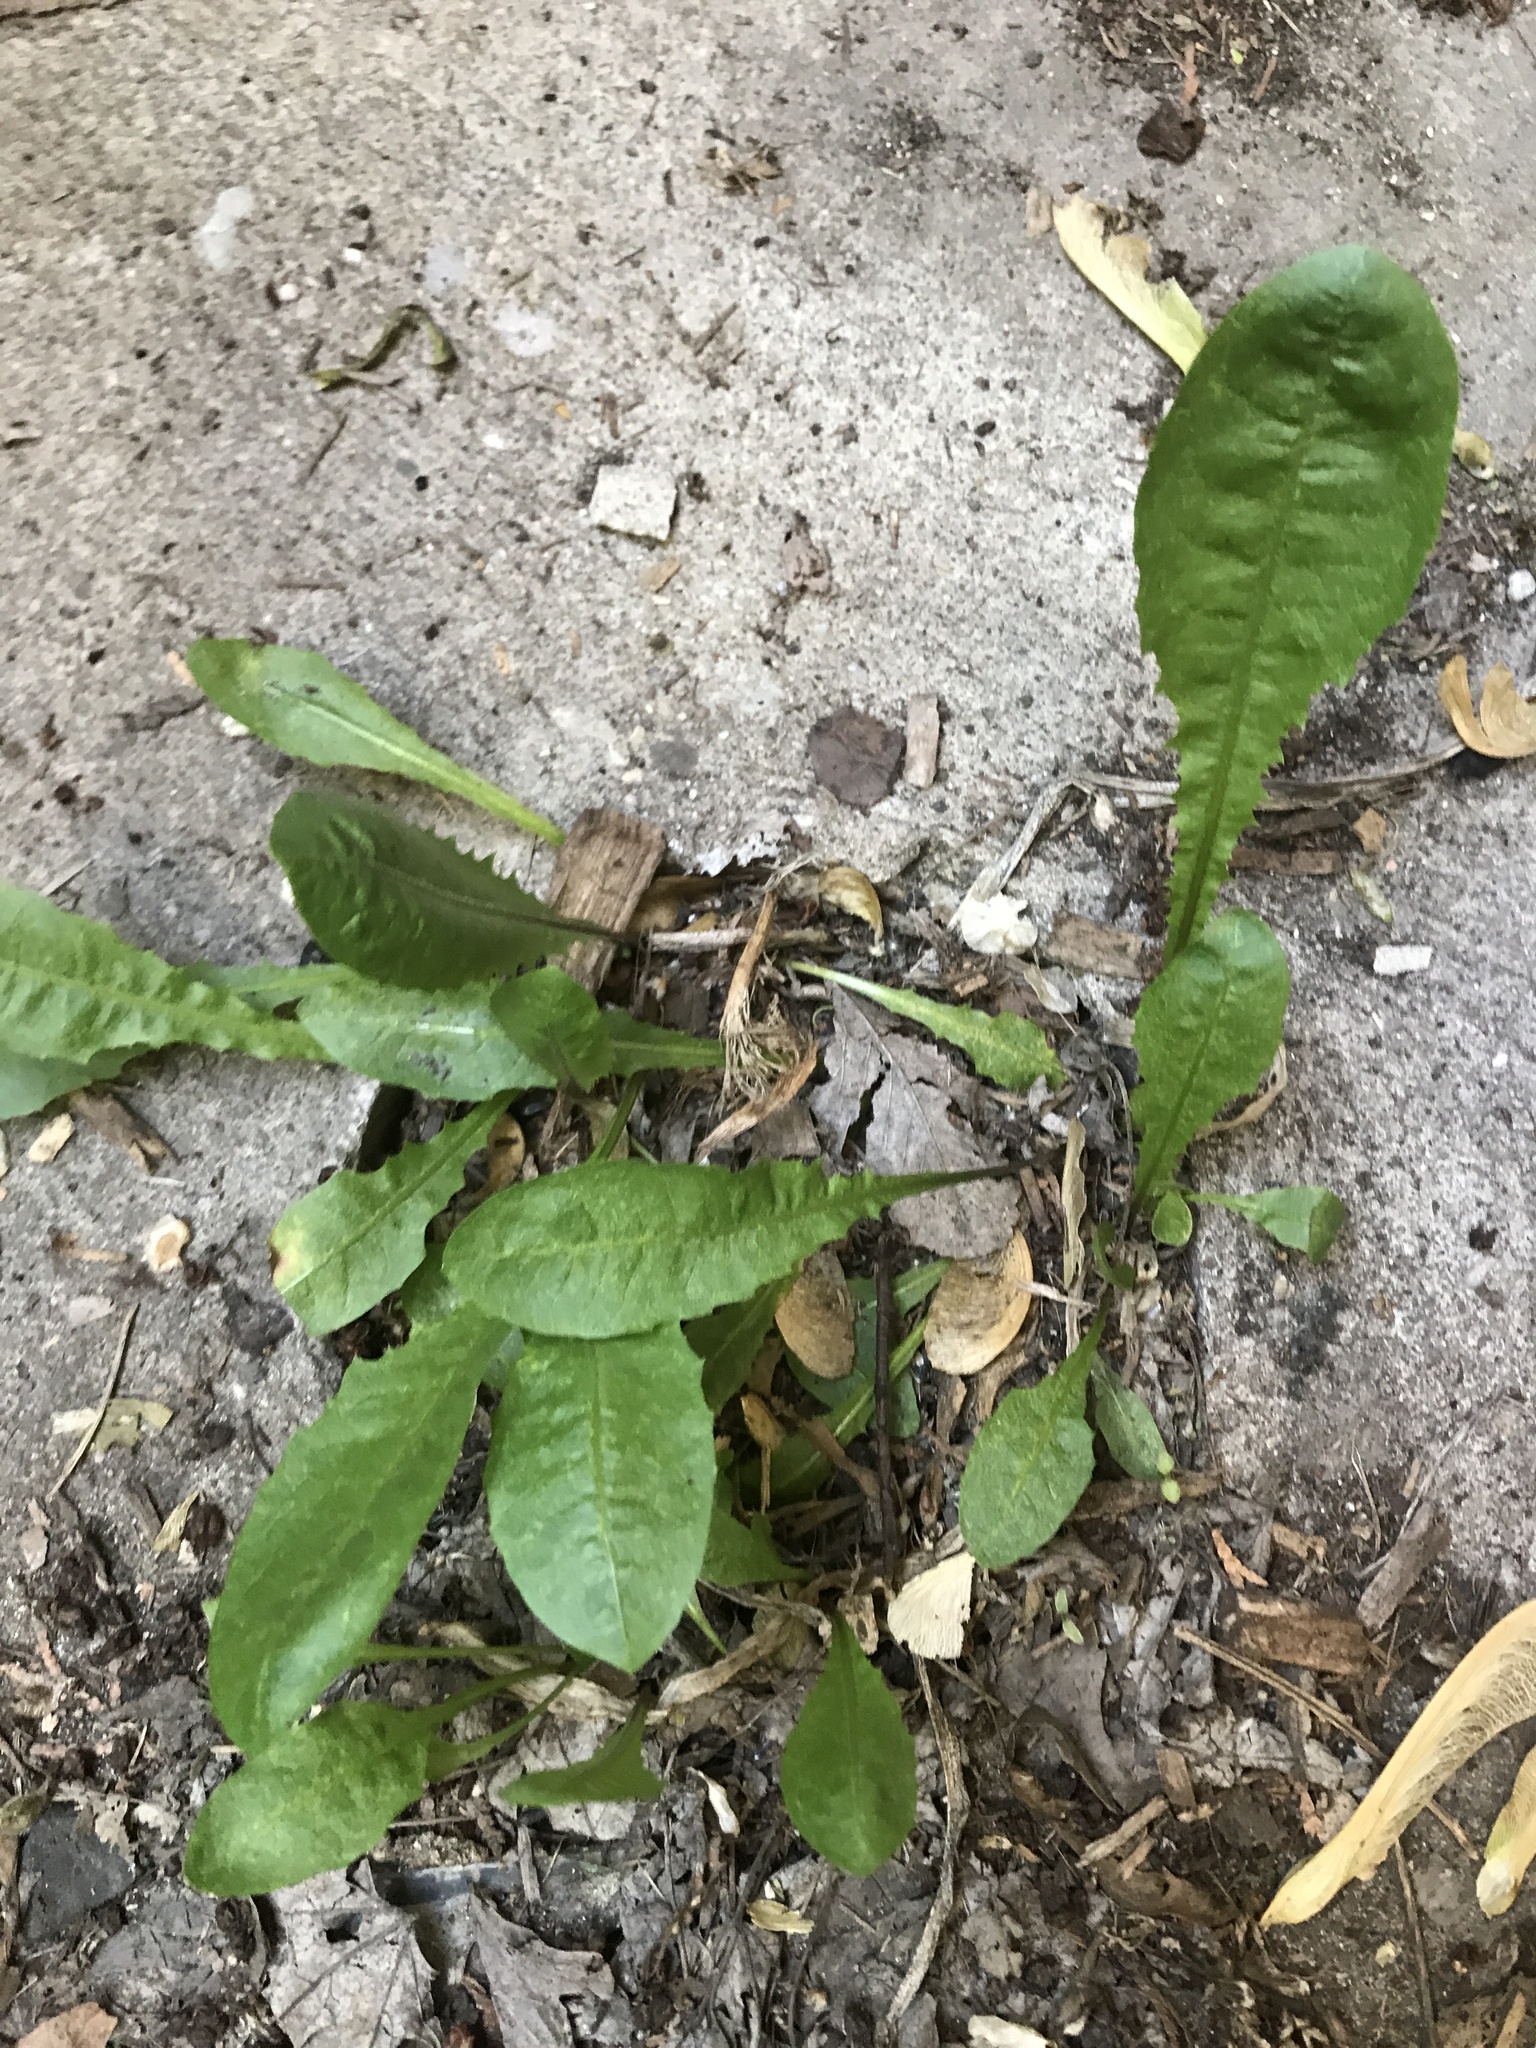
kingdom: Plantae
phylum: Tracheophyta
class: Magnoliopsida
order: Asterales
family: Asteraceae
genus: Taraxacum
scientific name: Taraxacum officinale
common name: Common dandelion
